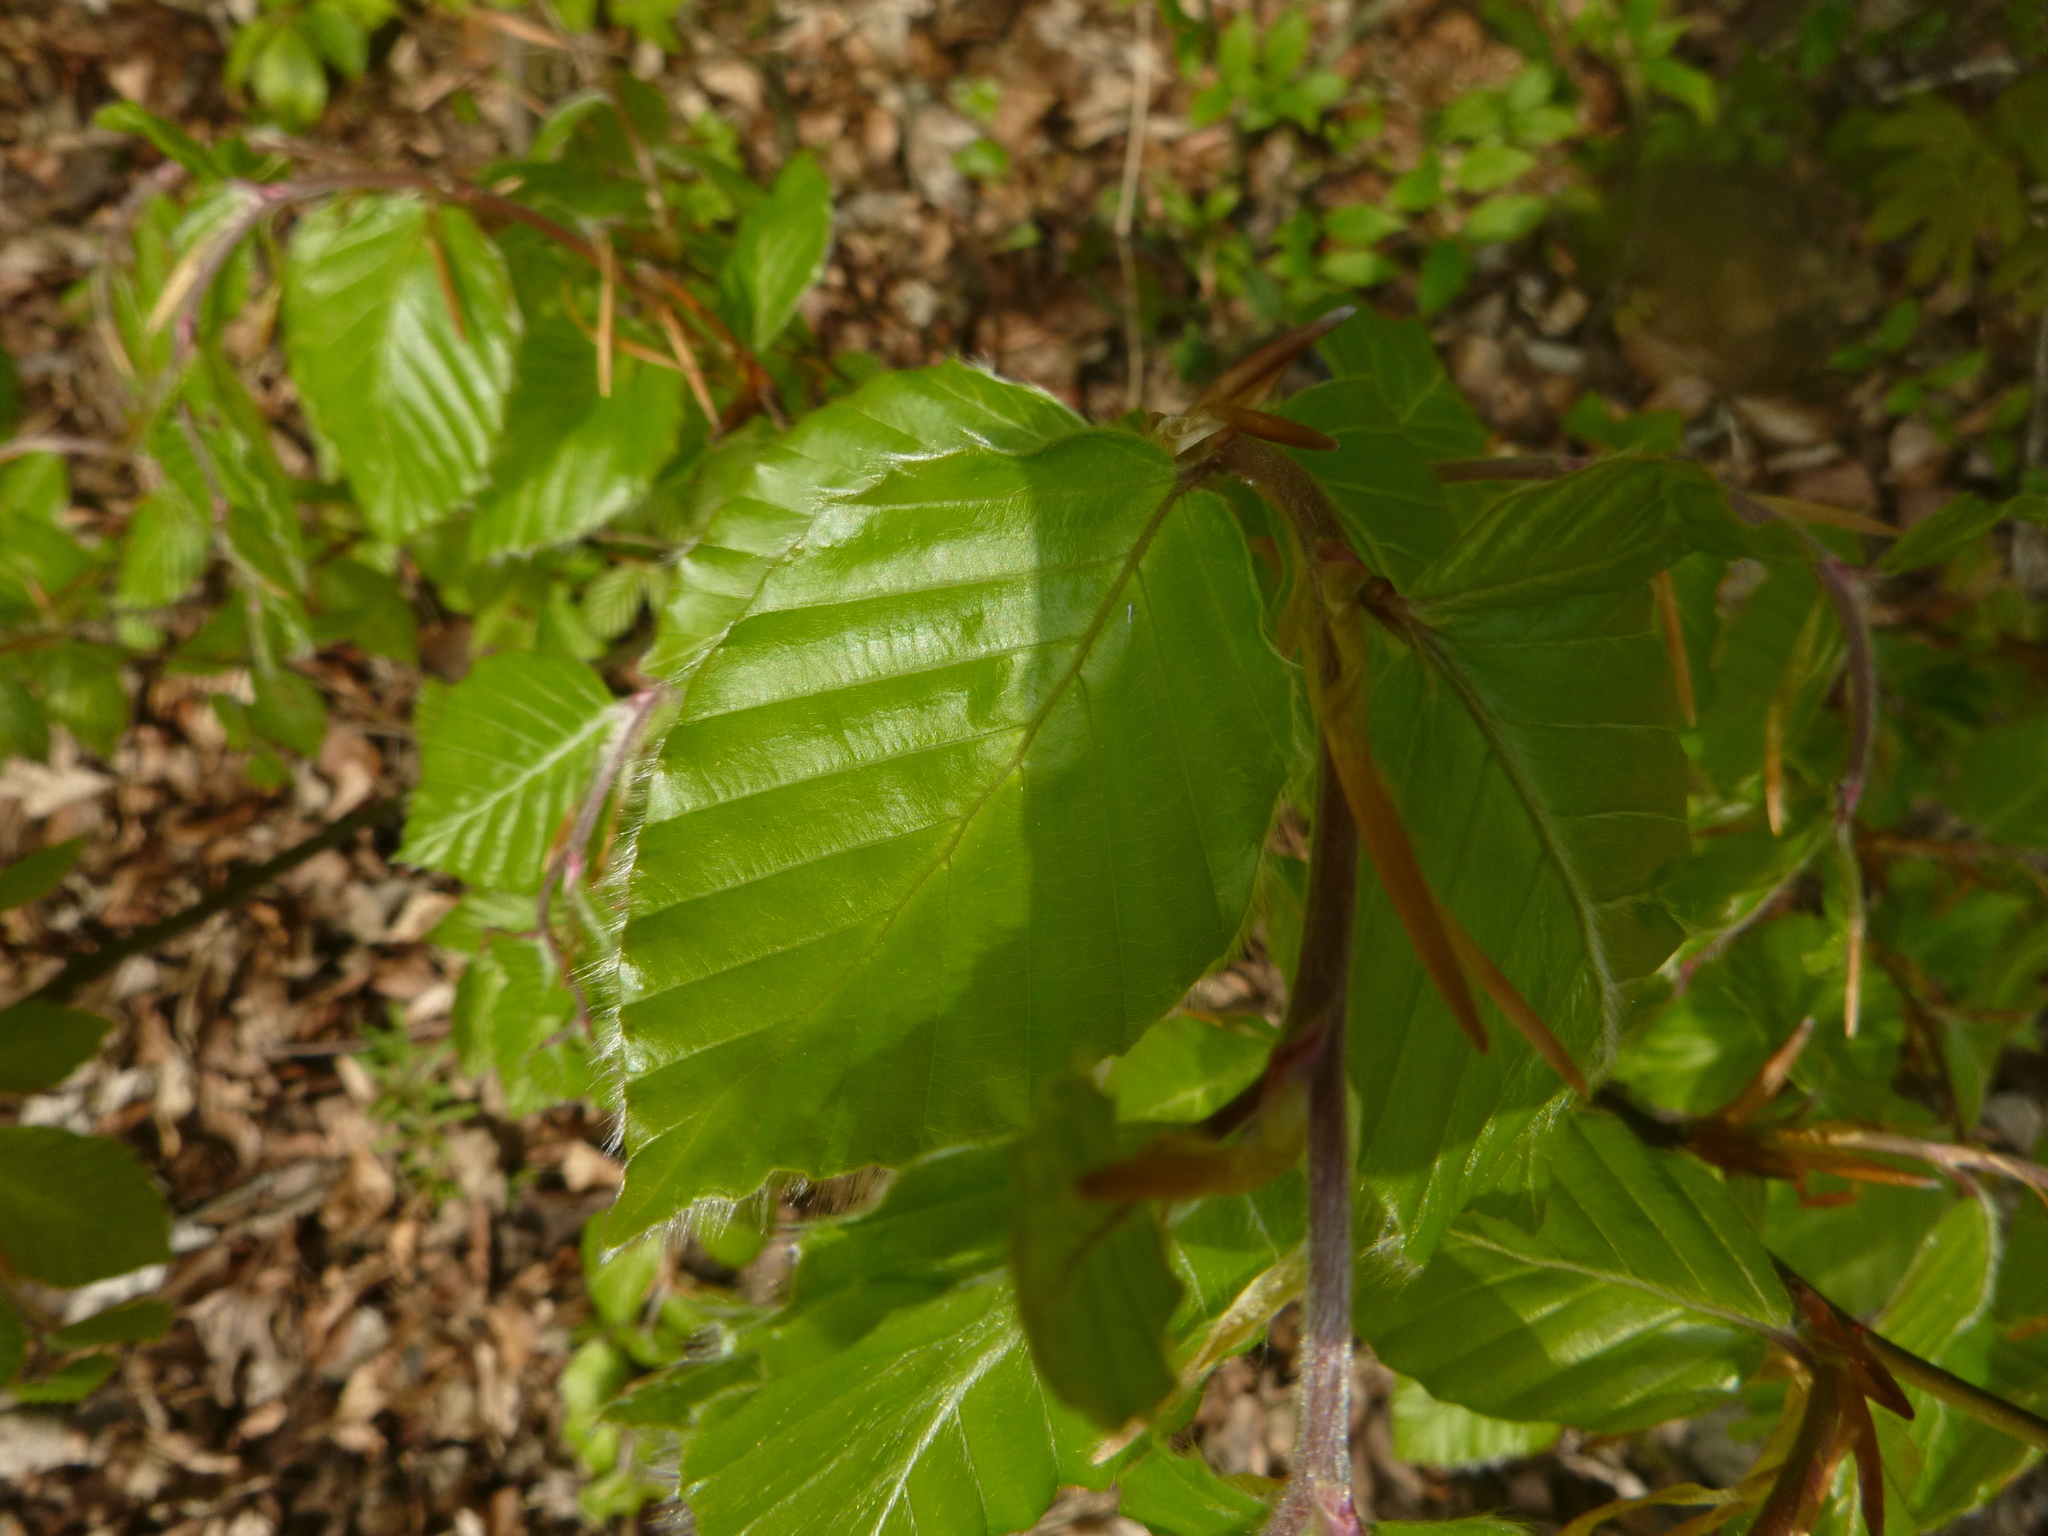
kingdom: Plantae
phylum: Tracheophyta
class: Magnoliopsida
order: Fagales
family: Fagaceae
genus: Fagus
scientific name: Fagus sylvatica
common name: Beech
